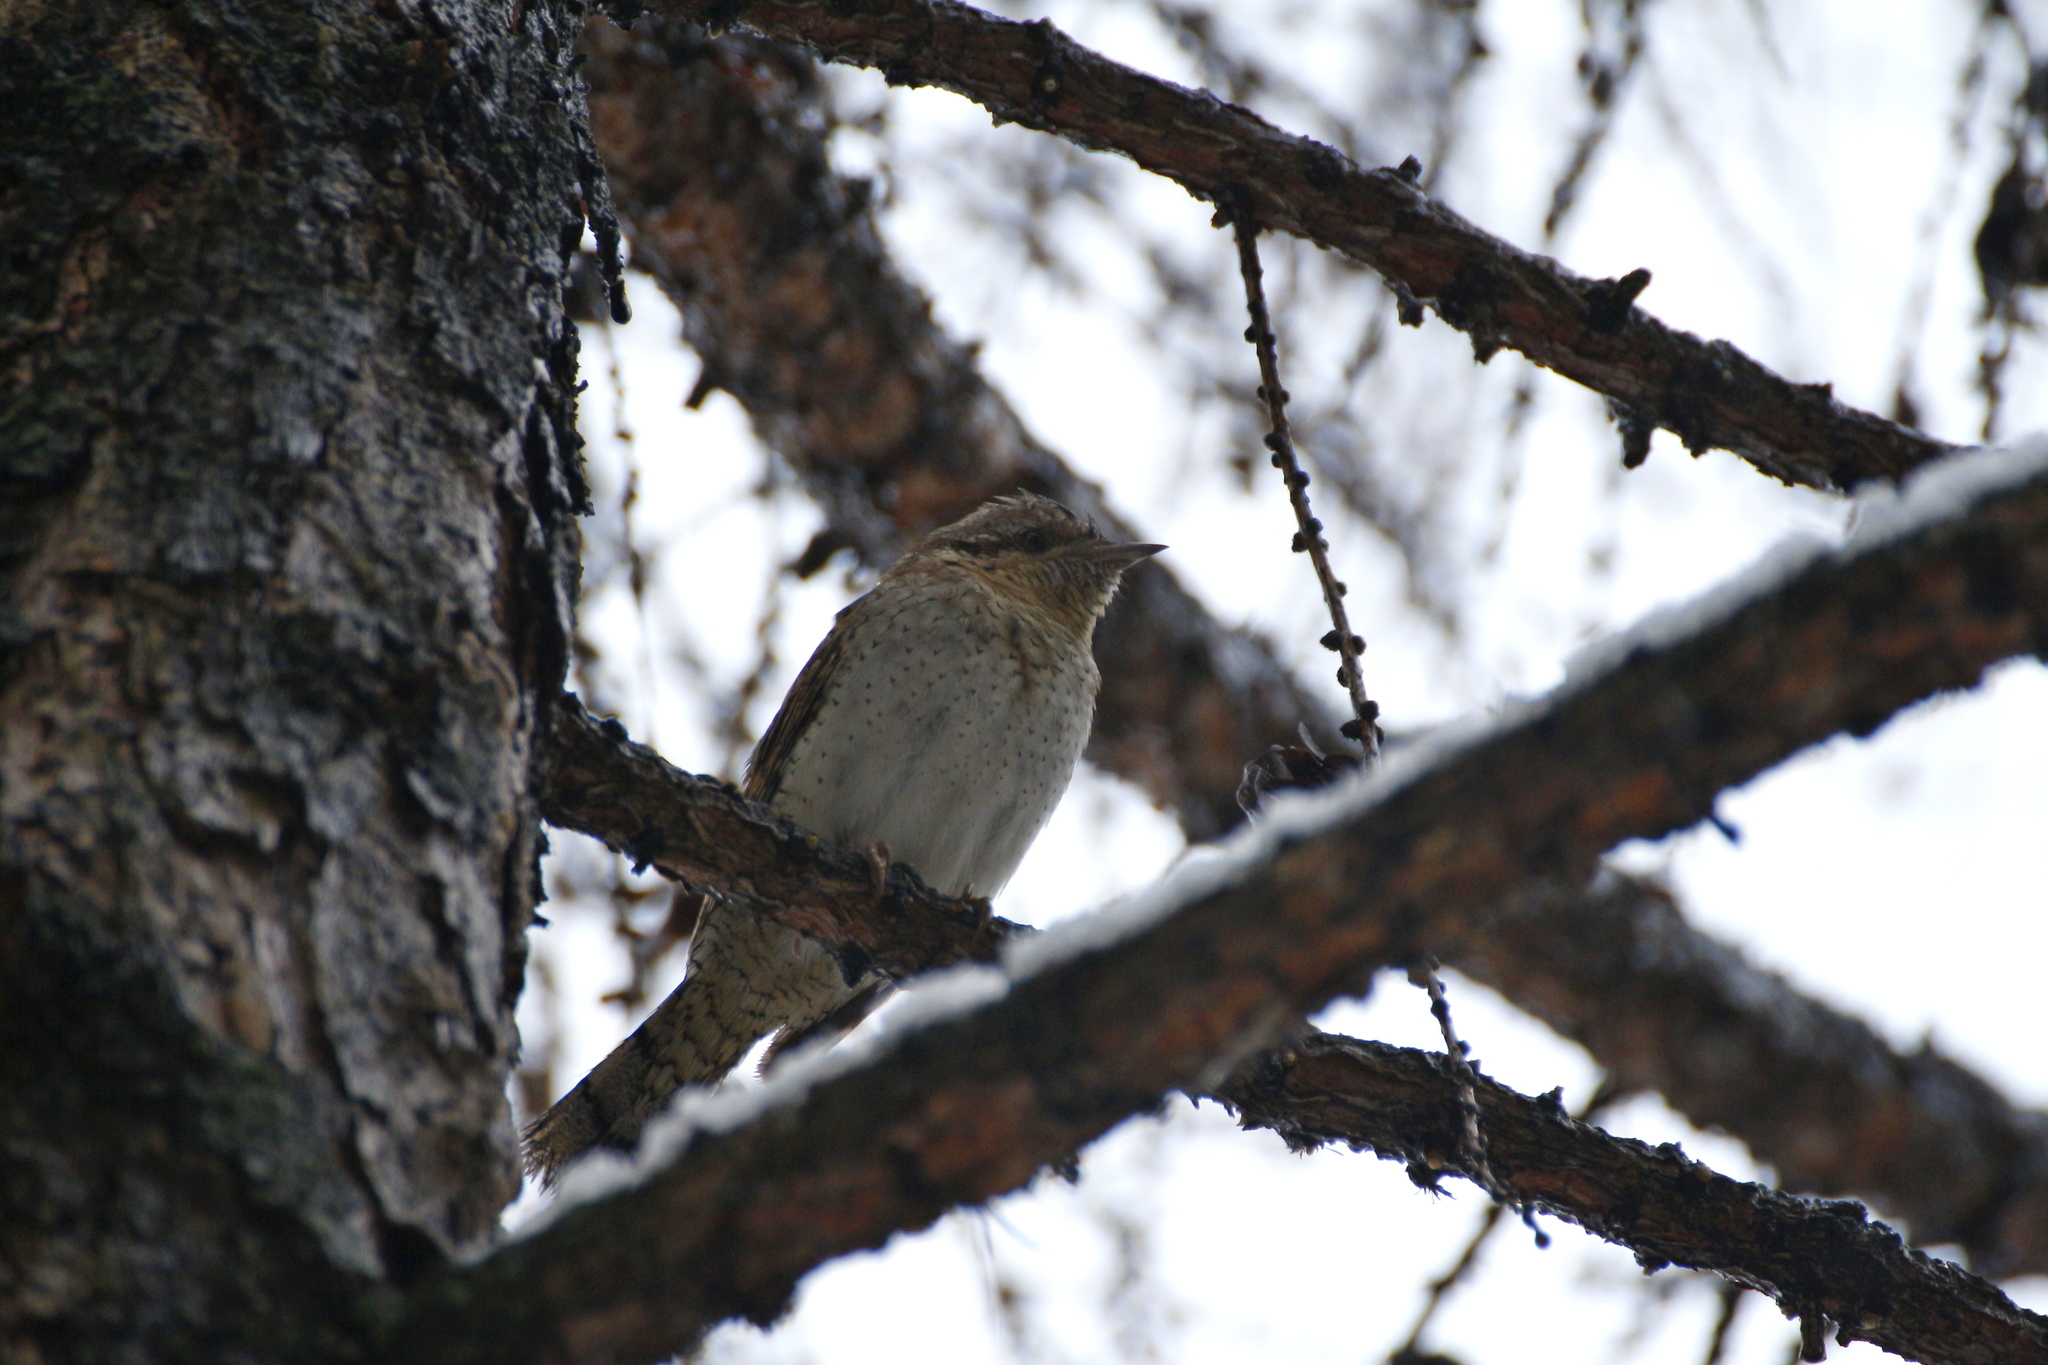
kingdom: Animalia
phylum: Chordata
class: Aves
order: Piciformes
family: Picidae
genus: Jynx
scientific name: Jynx torquilla
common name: Eurasian wryneck
